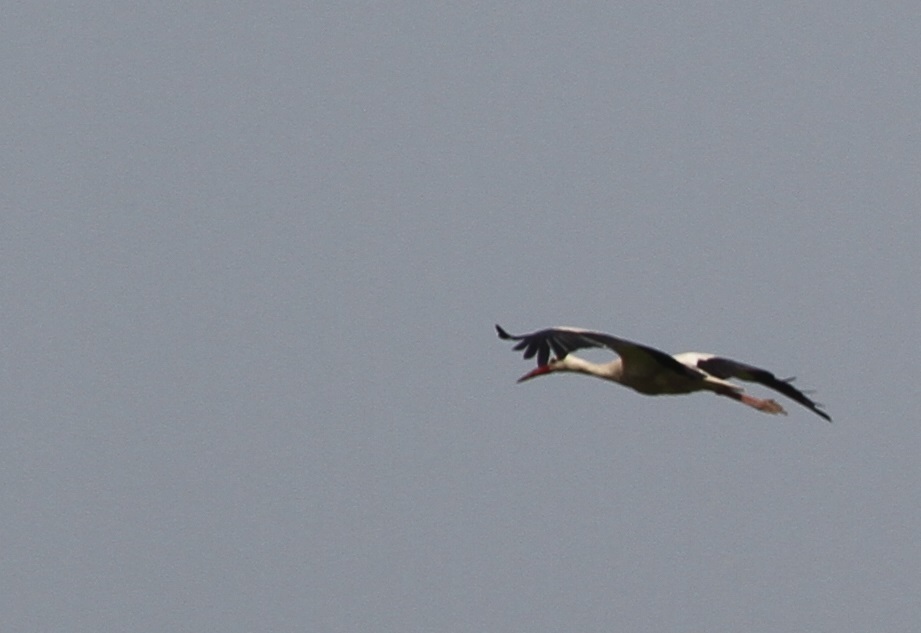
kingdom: Animalia
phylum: Chordata
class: Aves
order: Ciconiiformes
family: Ciconiidae
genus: Ciconia
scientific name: Ciconia ciconia
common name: White stork
